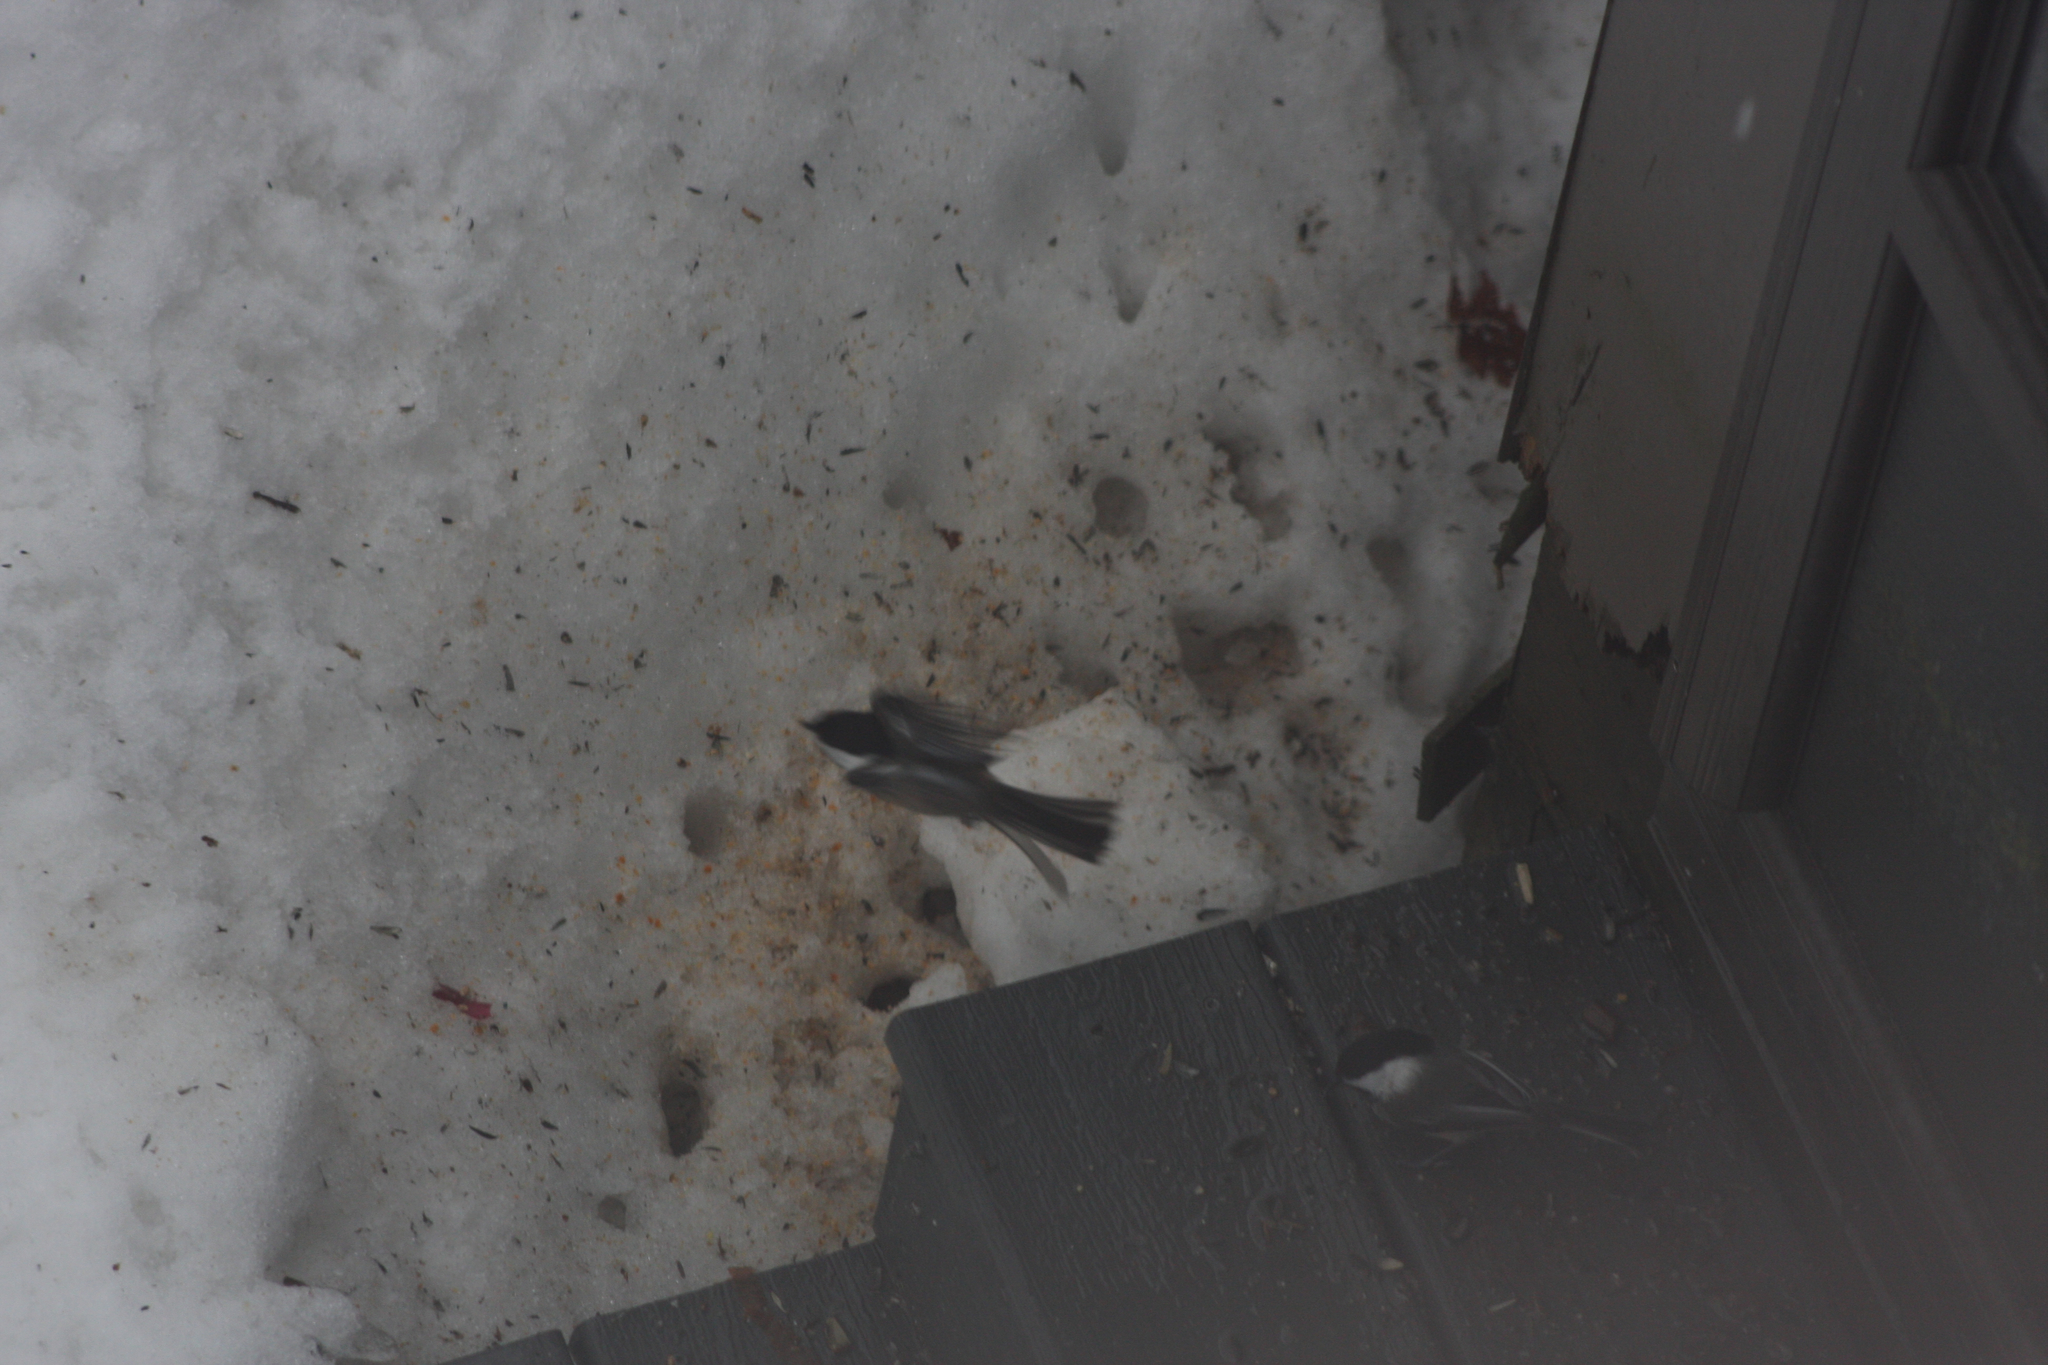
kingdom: Animalia
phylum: Chordata
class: Aves
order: Passeriformes
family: Paridae
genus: Poecile
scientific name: Poecile atricapillus
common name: Black-capped chickadee
